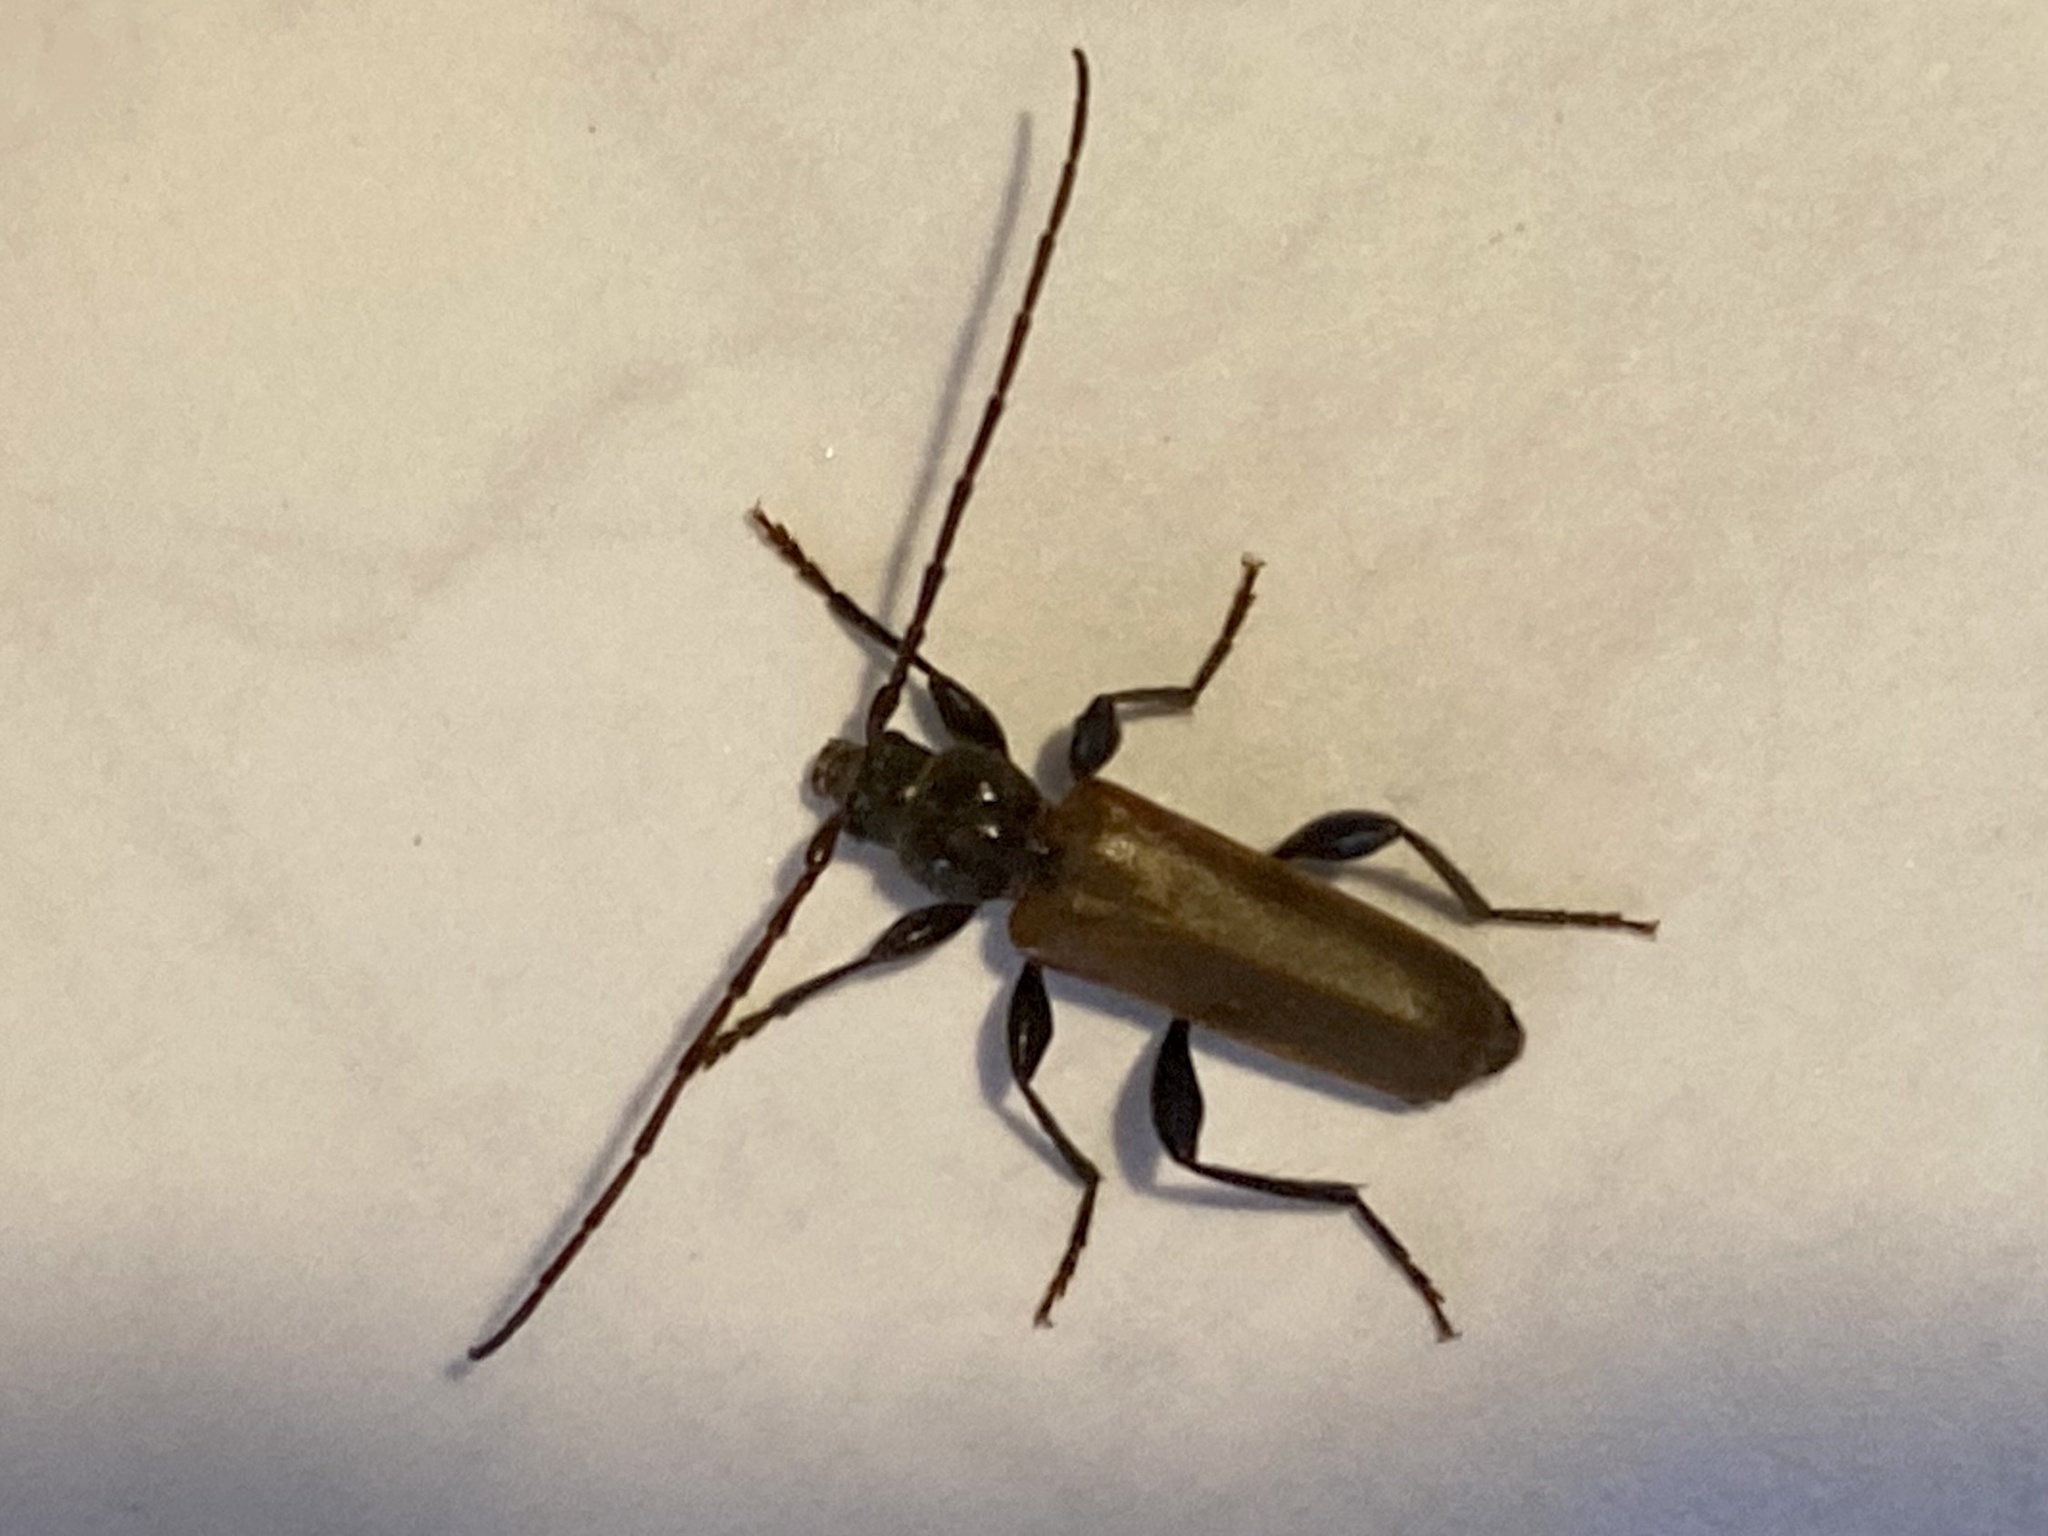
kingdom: Animalia
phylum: Arthropoda
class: Insecta
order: Coleoptera
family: Cerambycidae
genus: Phymatodes
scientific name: Phymatodes testaceus
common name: Long-horned beetle
